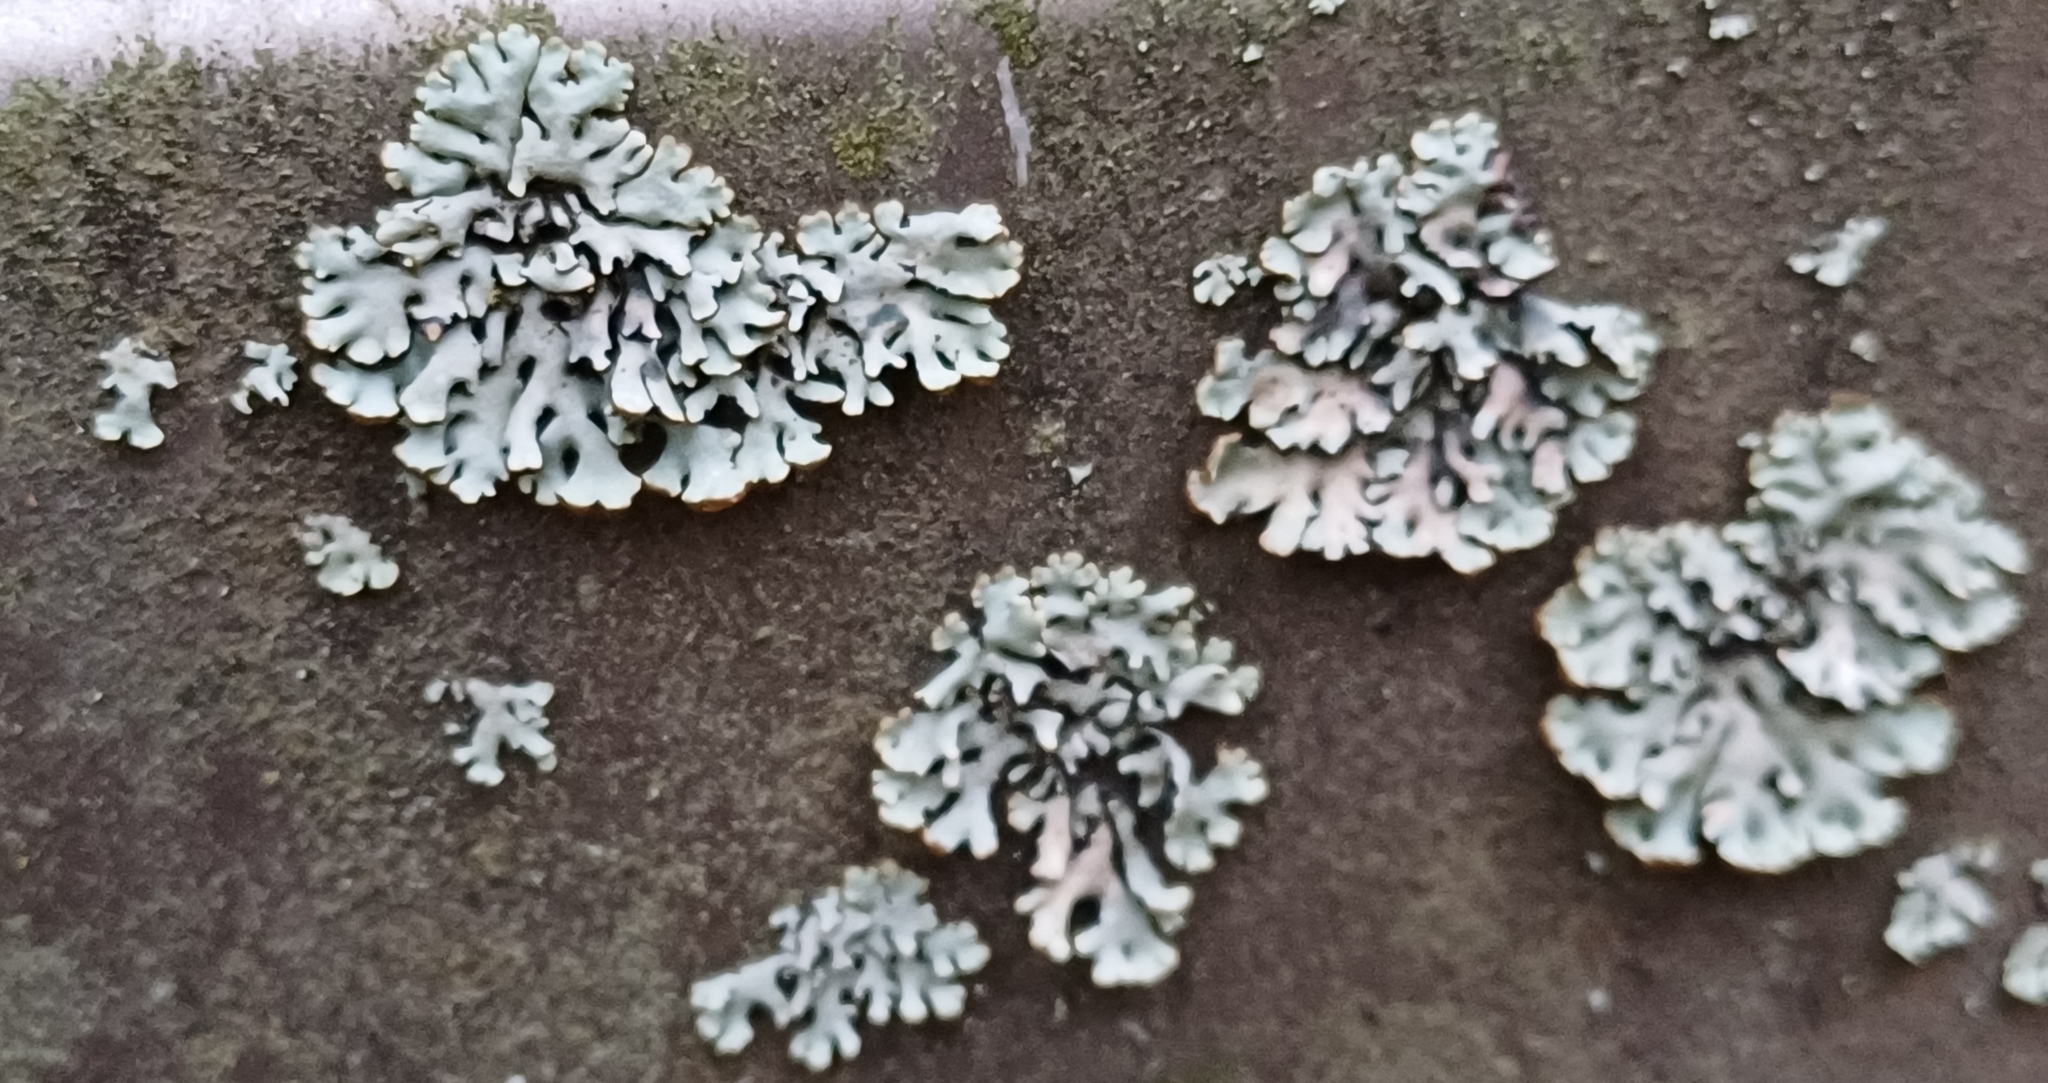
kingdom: Fungi
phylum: Ascomycota
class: Lecanoromycetes
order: Lecanorales
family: Parmeliaceae
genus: Hypogymnia
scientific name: Hypogymnia physodes
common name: Dark crottle
